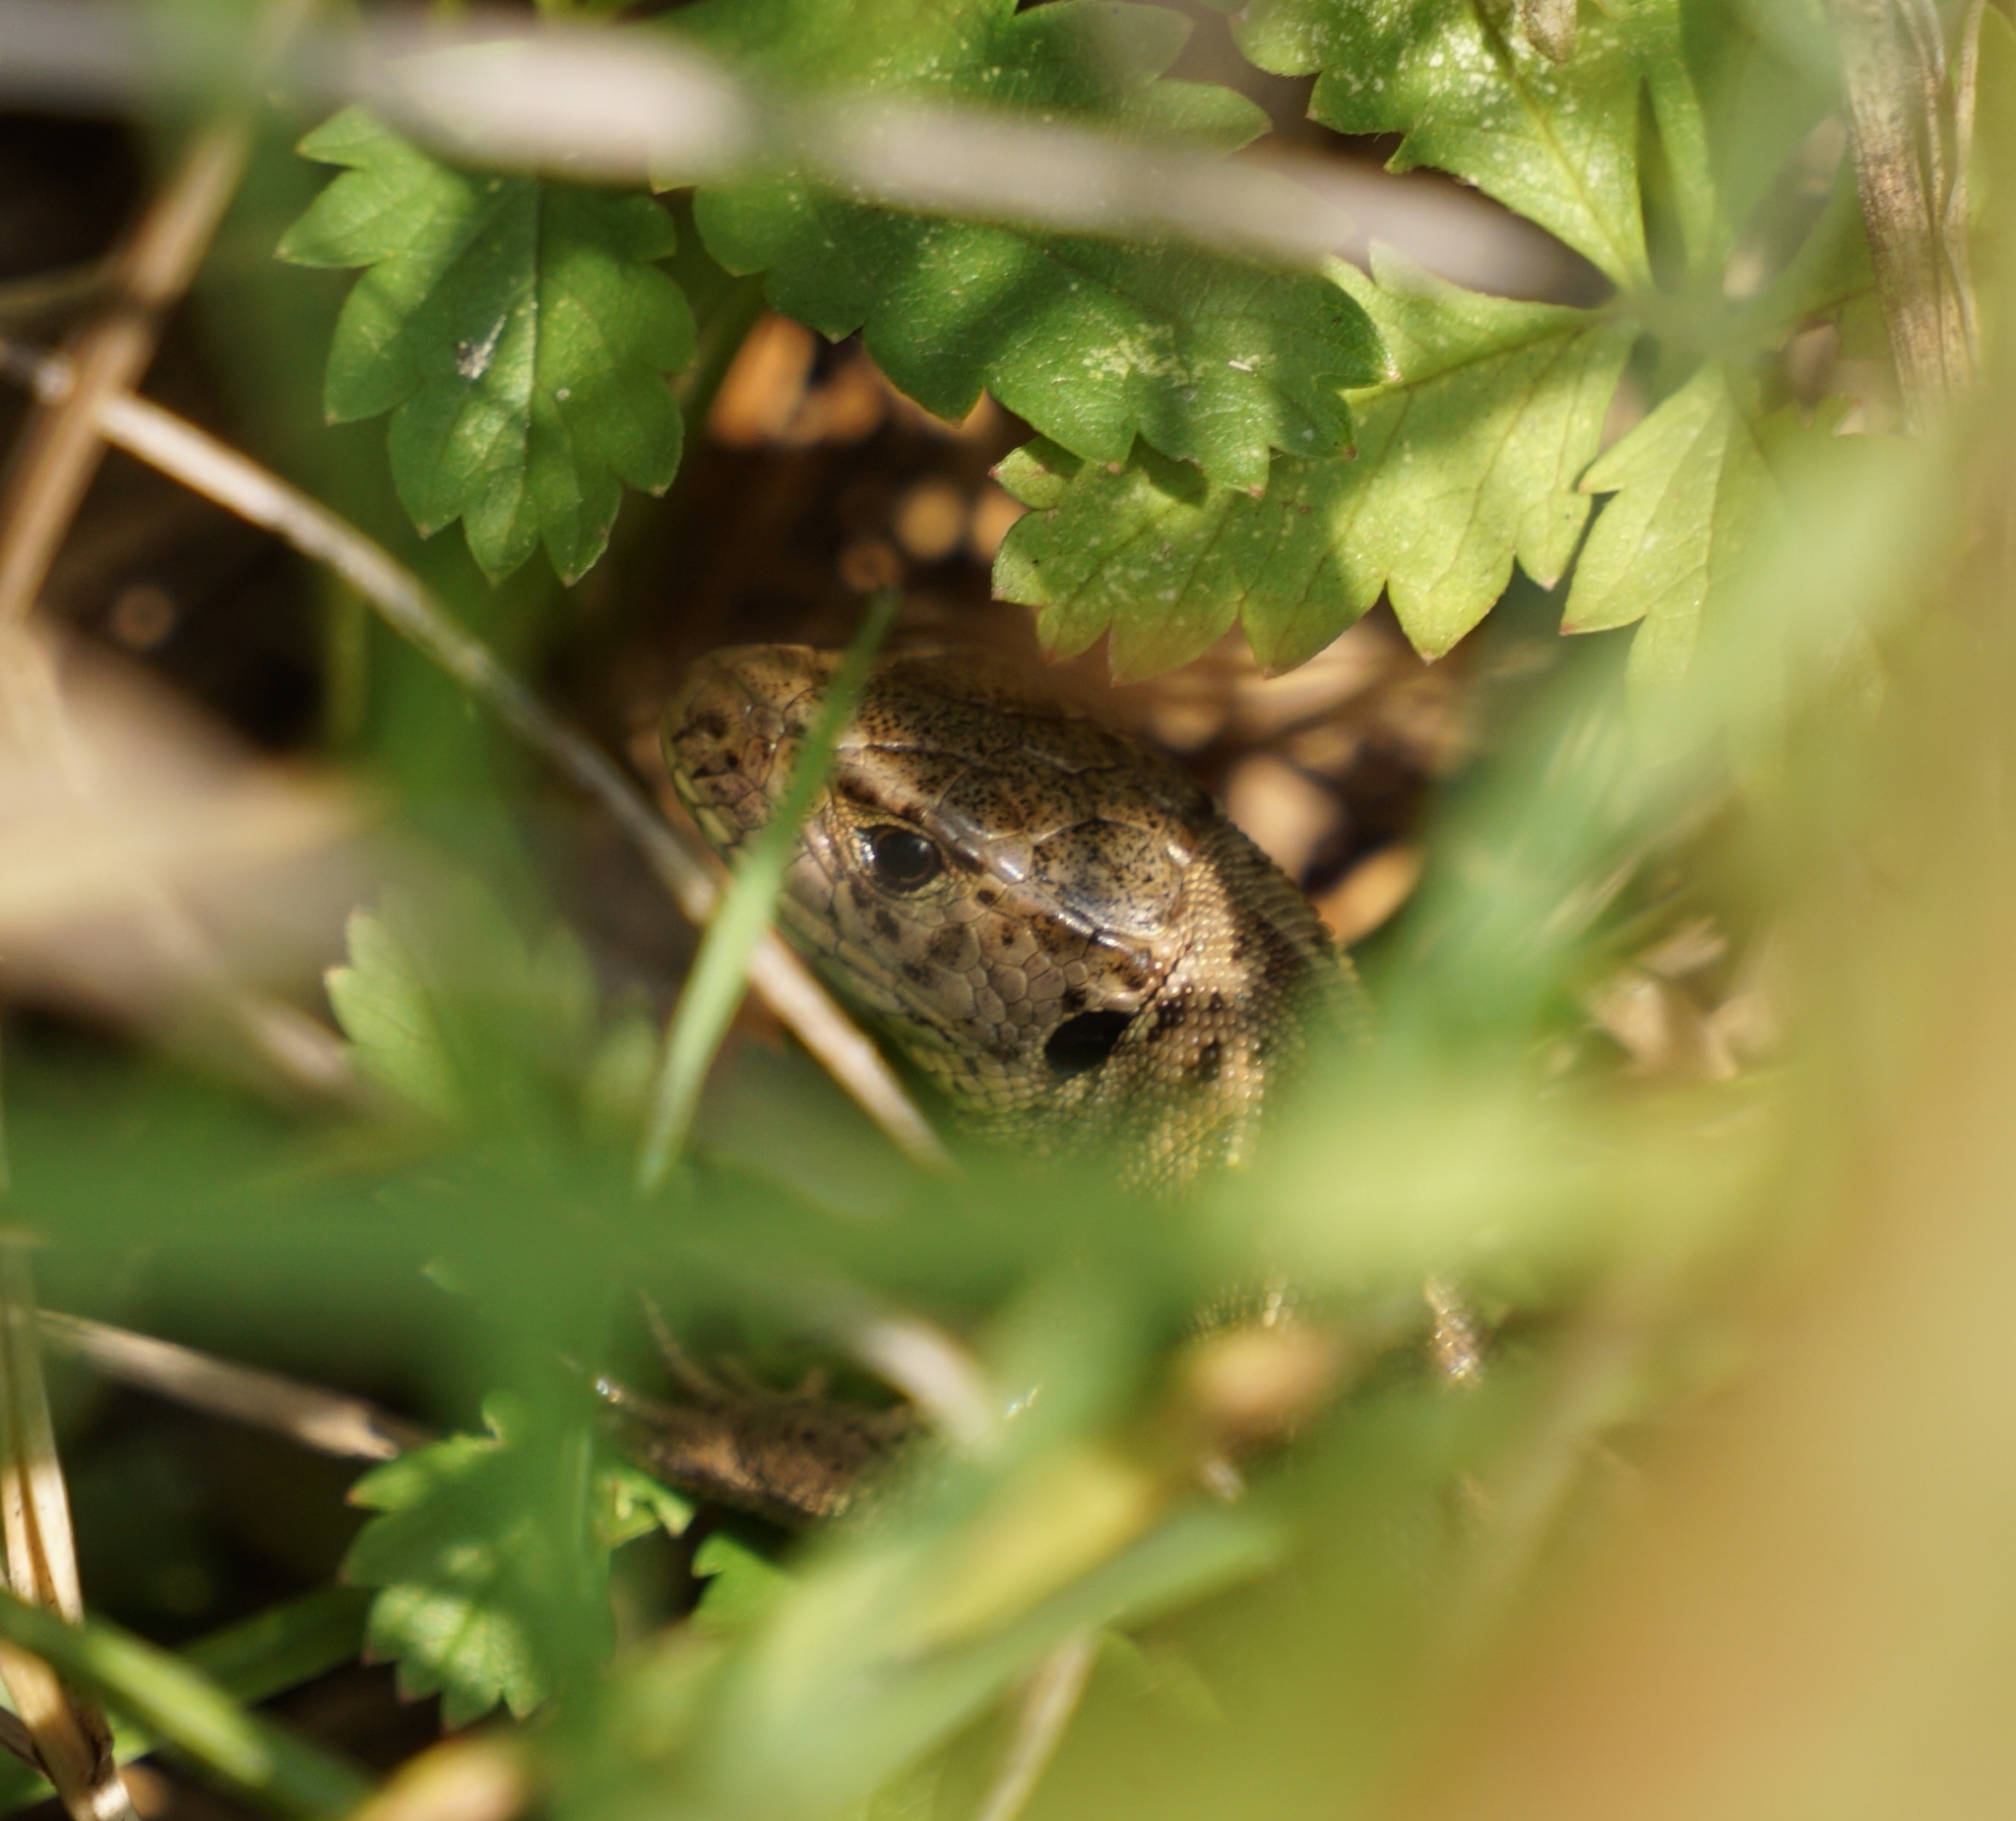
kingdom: Animalia
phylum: Chordata
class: Squamata
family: Lacertidae
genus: Lacerta
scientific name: Lacerta agilis
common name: Sand lizard
